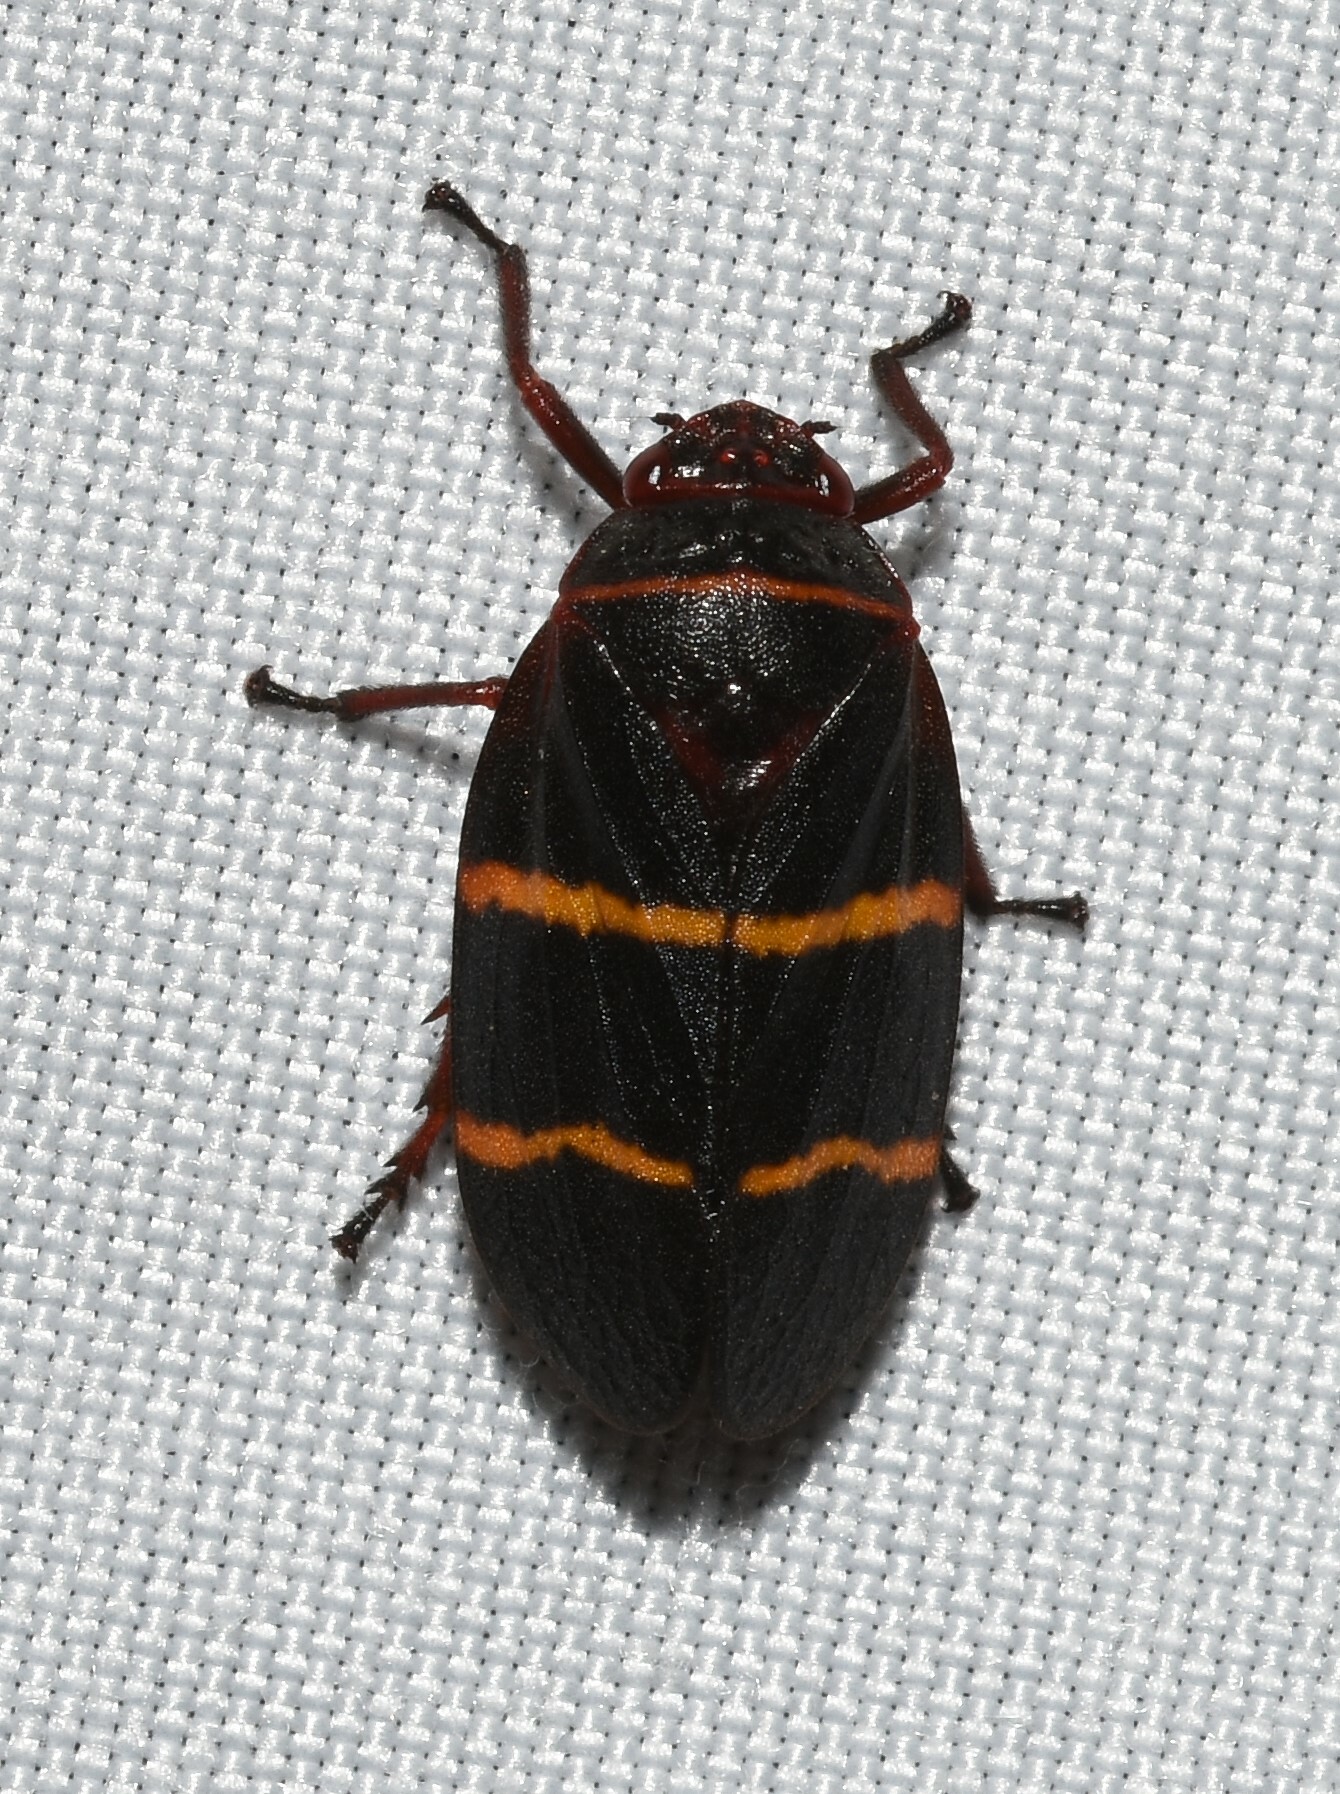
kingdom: Animalia
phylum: Arthropoda
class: Insecta
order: Hemiptera
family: Cercopidae
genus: Prosapia
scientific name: Prosapia bicincta
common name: Twolined spittlebug
